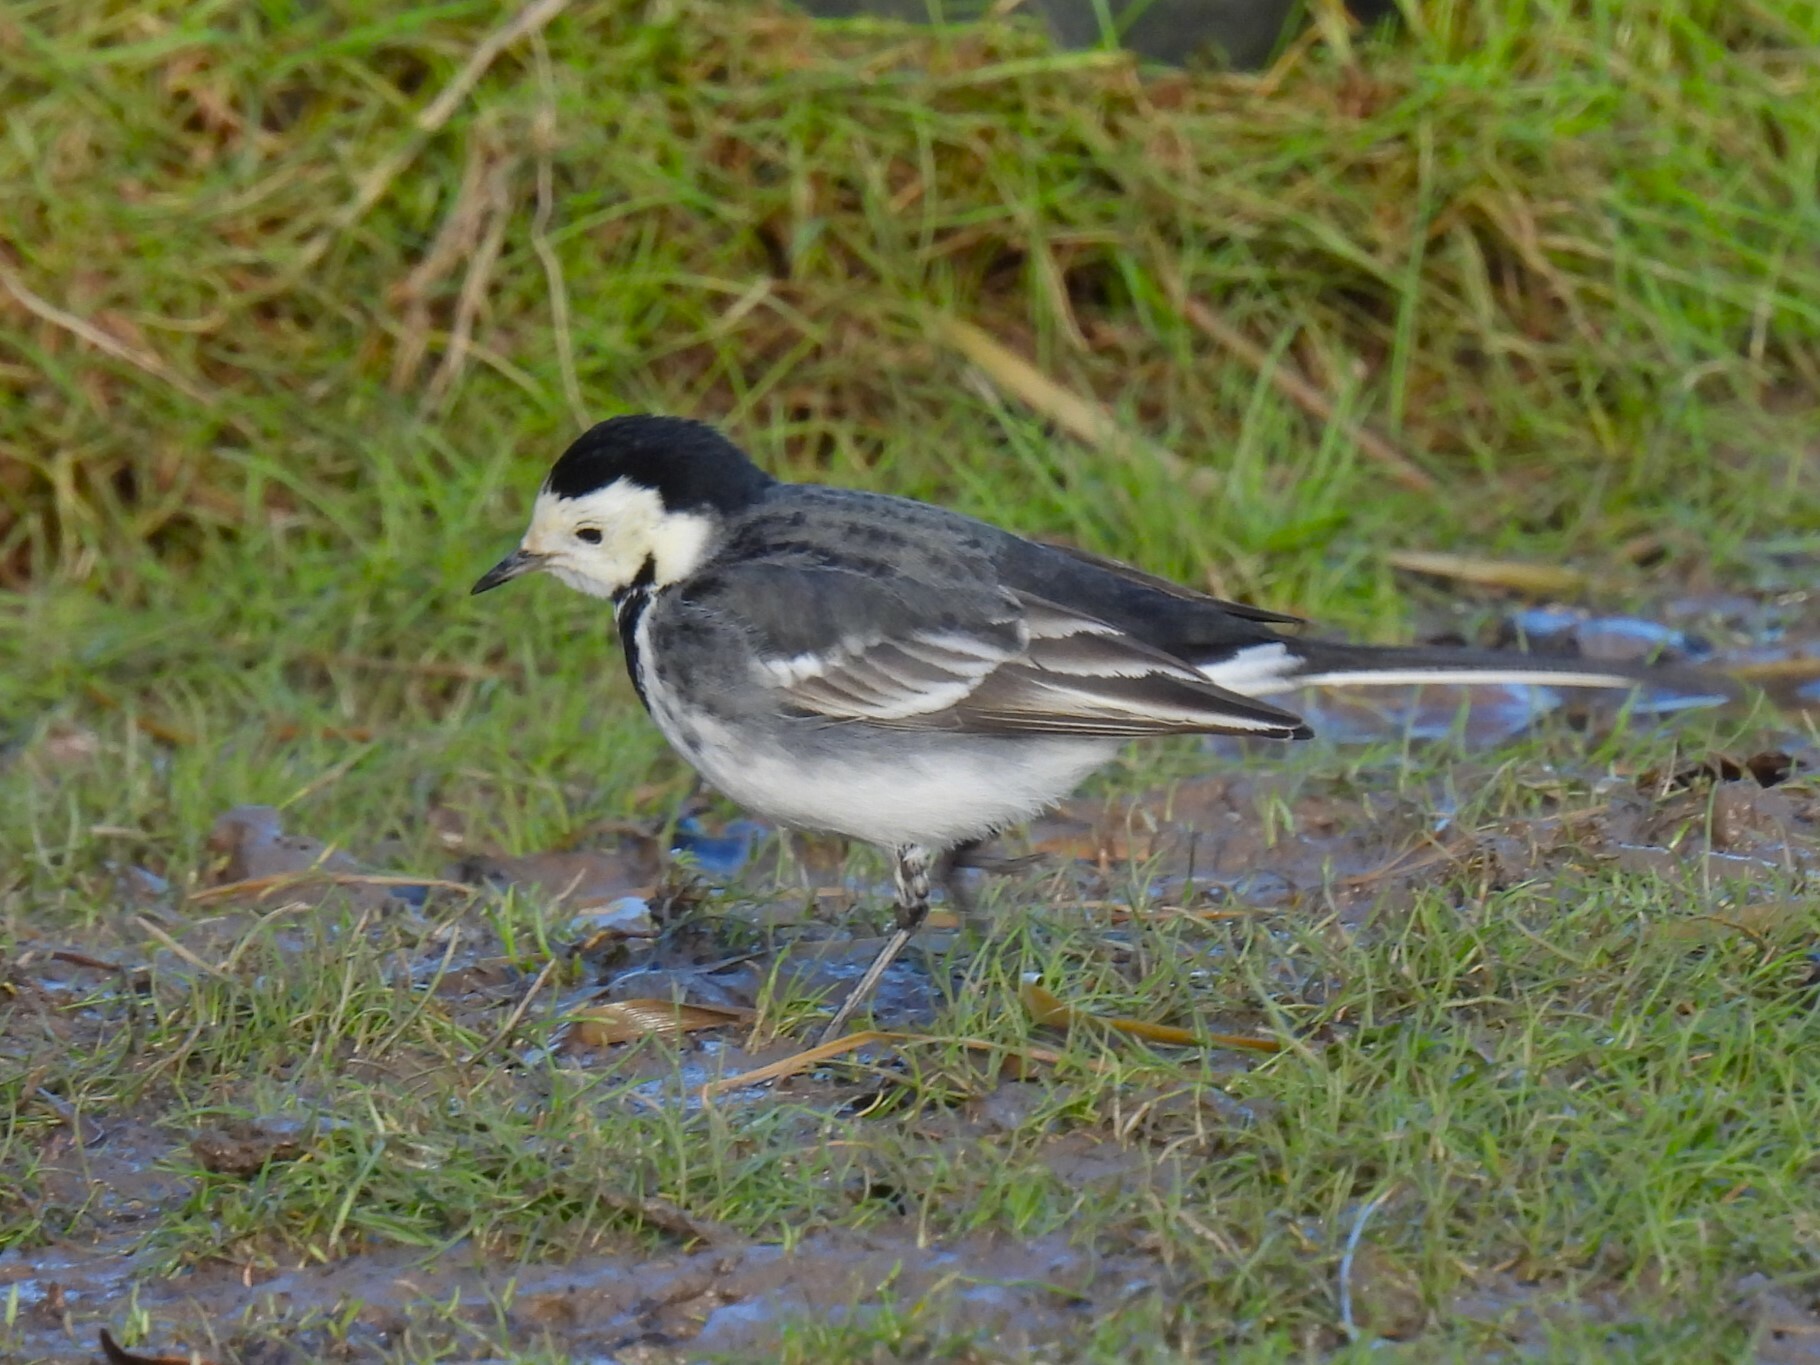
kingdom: Animalia
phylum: Chordata
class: Aves
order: Passeriformes
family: Motacillidae
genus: Motacilla
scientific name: Motacilla alba
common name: White wagtail
